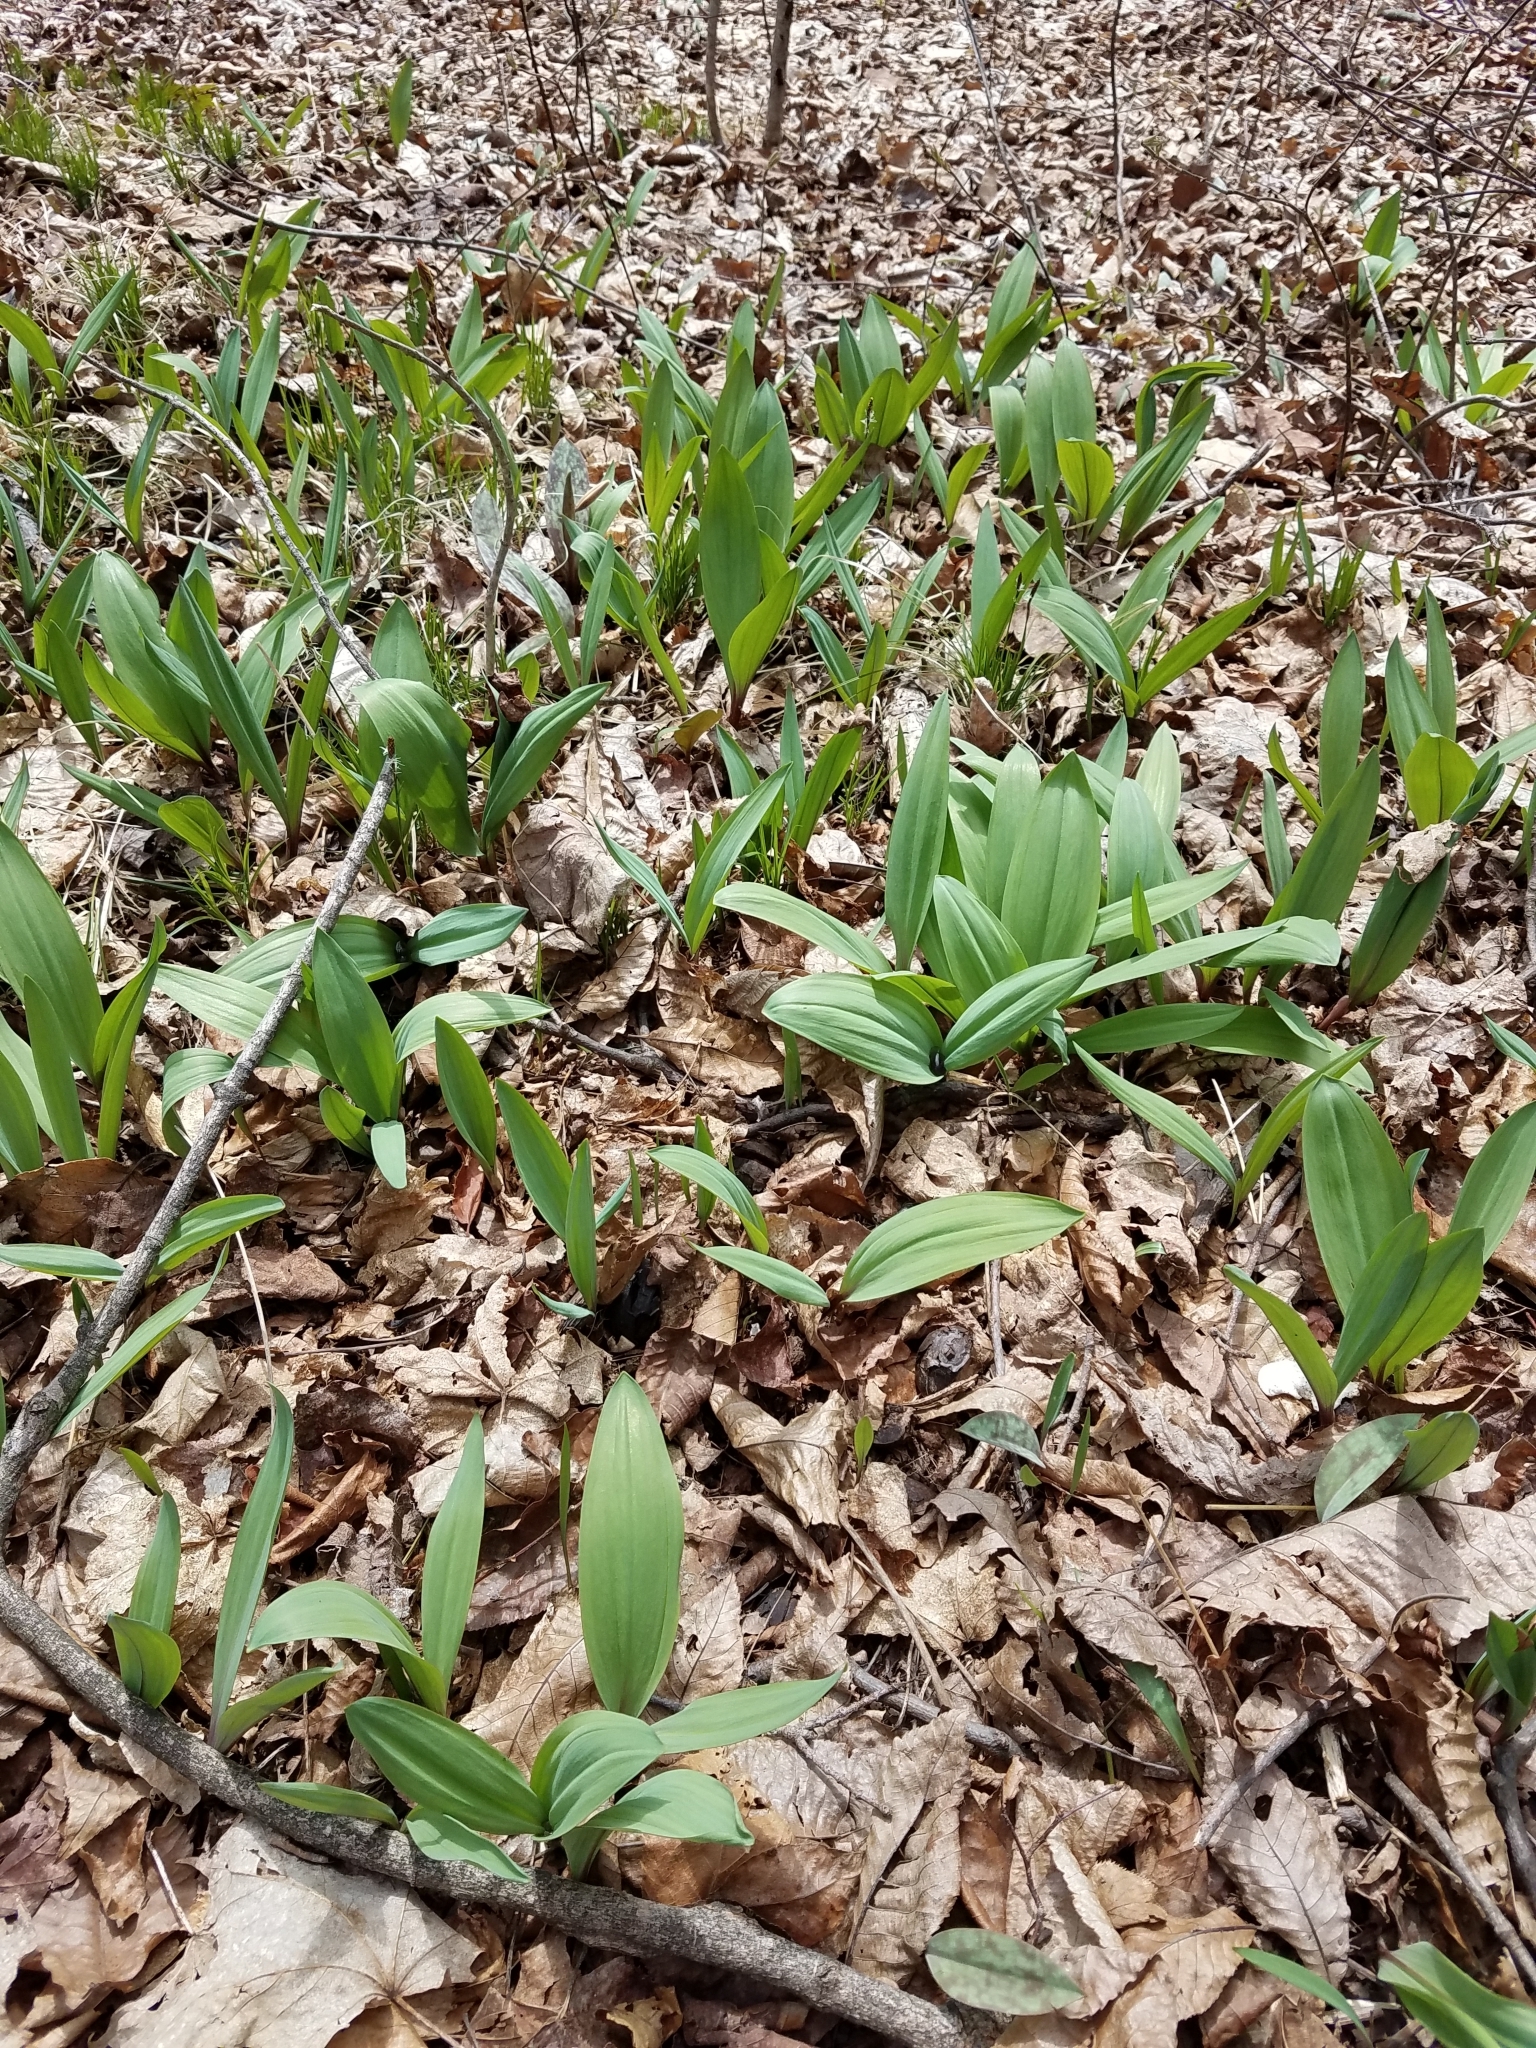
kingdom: Plantae
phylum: Tracheophyta
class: Liliopsida
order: Asparagales
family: Amaryllidaceae
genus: Allium
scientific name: Allium tricoccum
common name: Ramp
